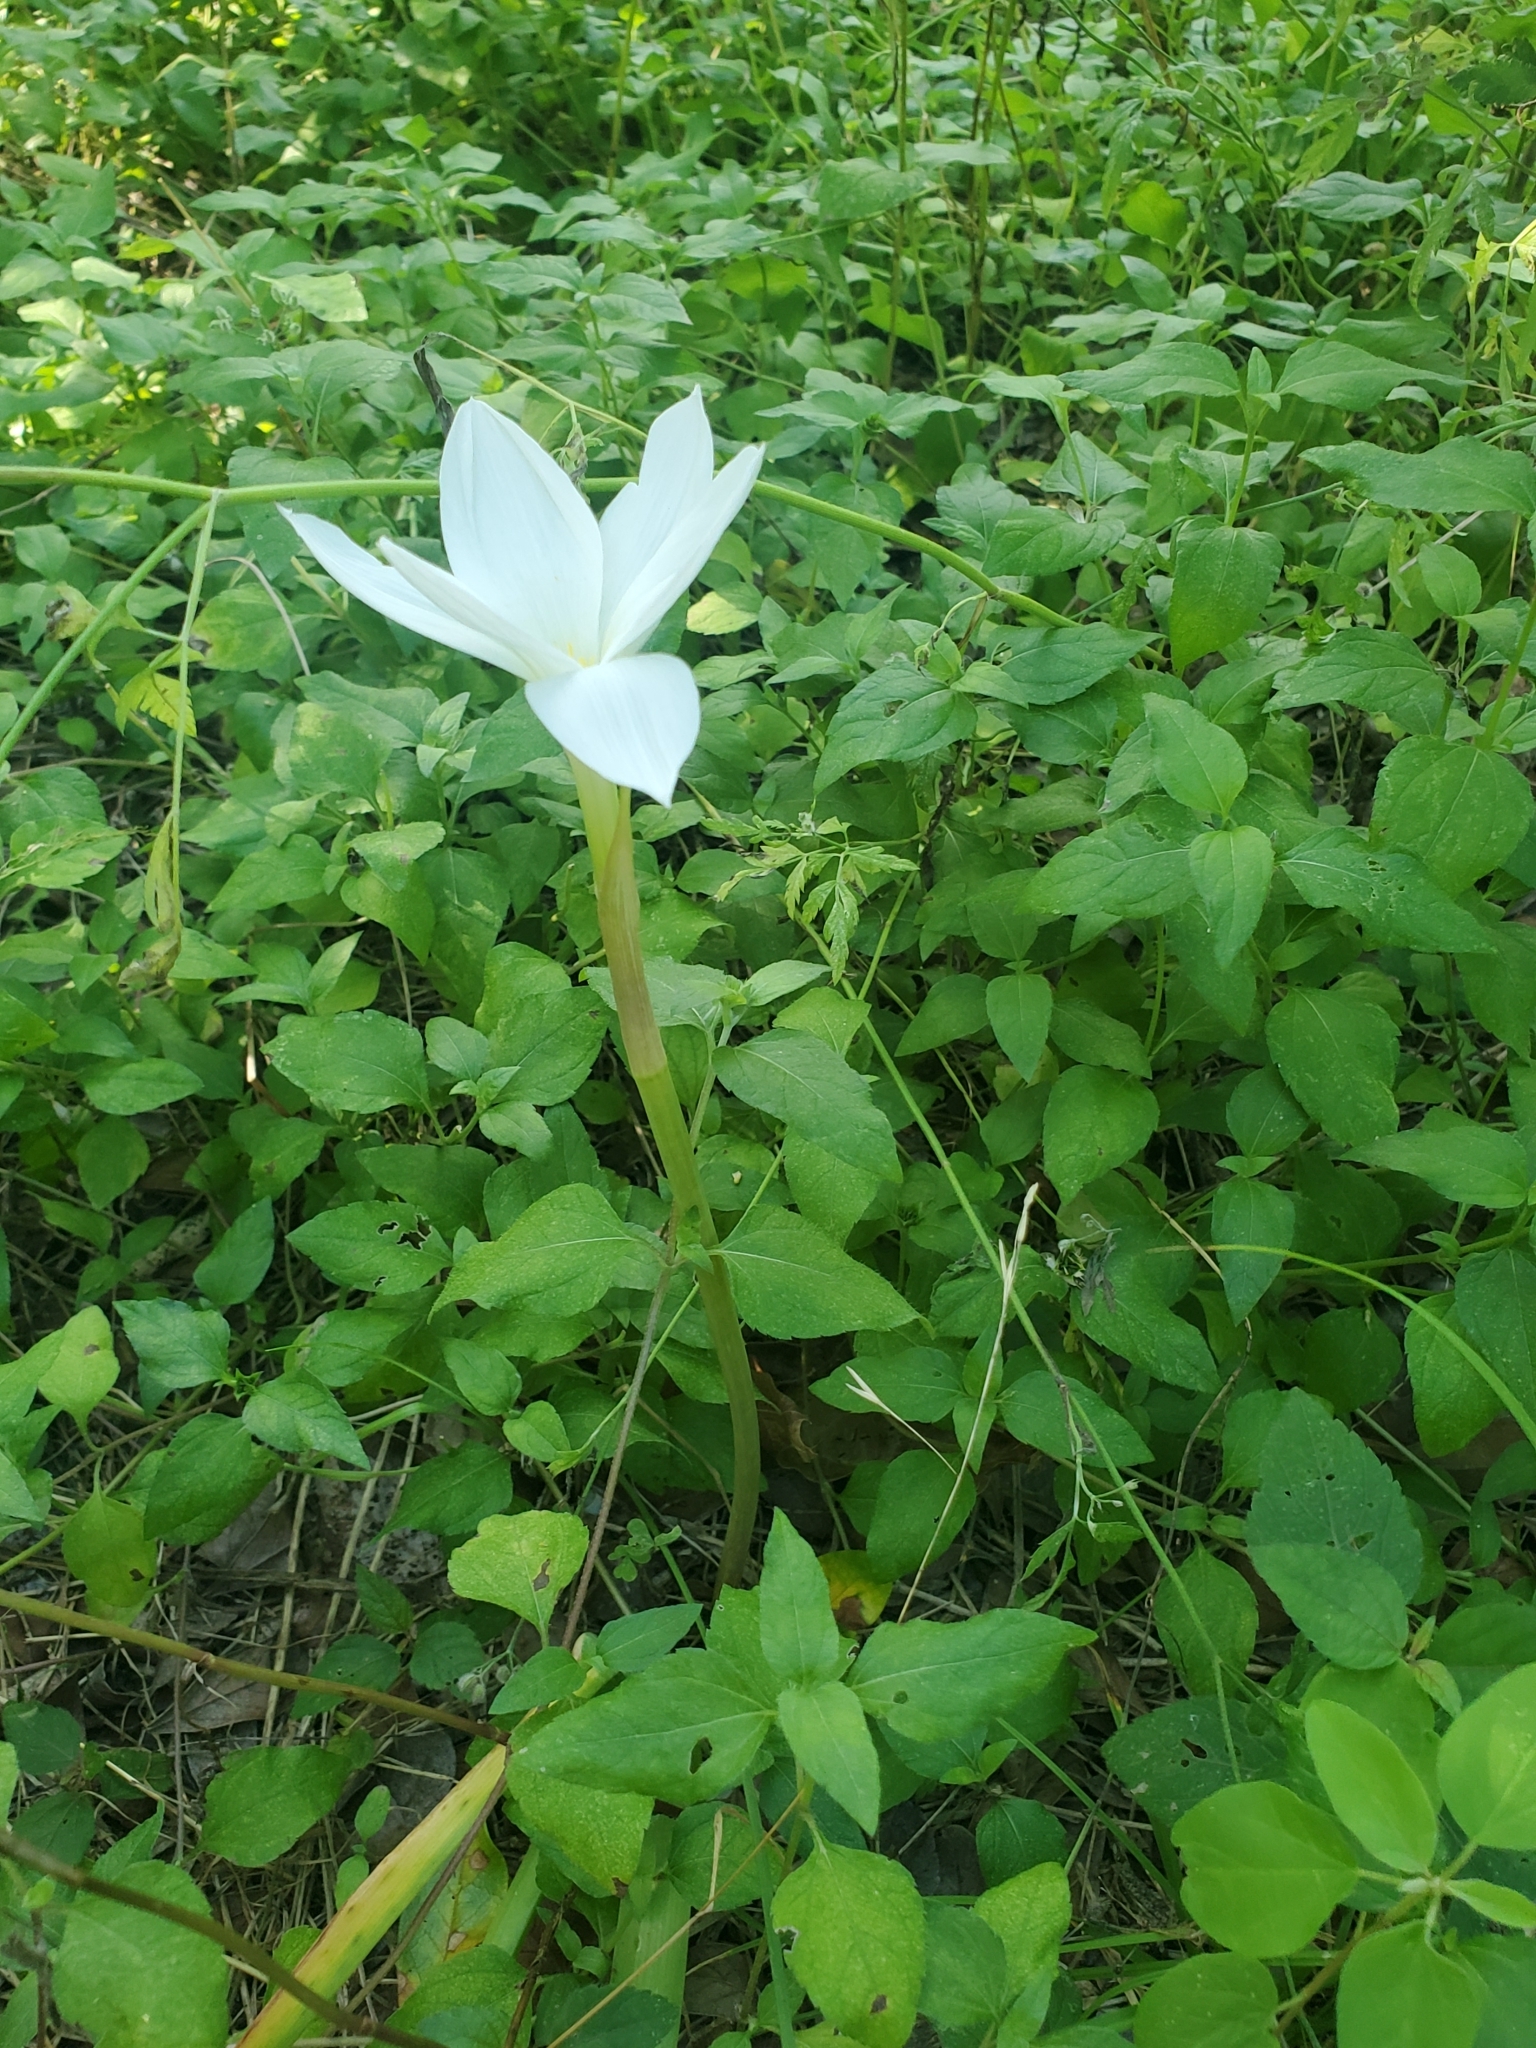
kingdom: Plantae
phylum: Tracheophyta
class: Liliopsida
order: Asparagales
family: Amaryllidaceae
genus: Zephyranthes
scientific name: Zephyranthes drummondii
